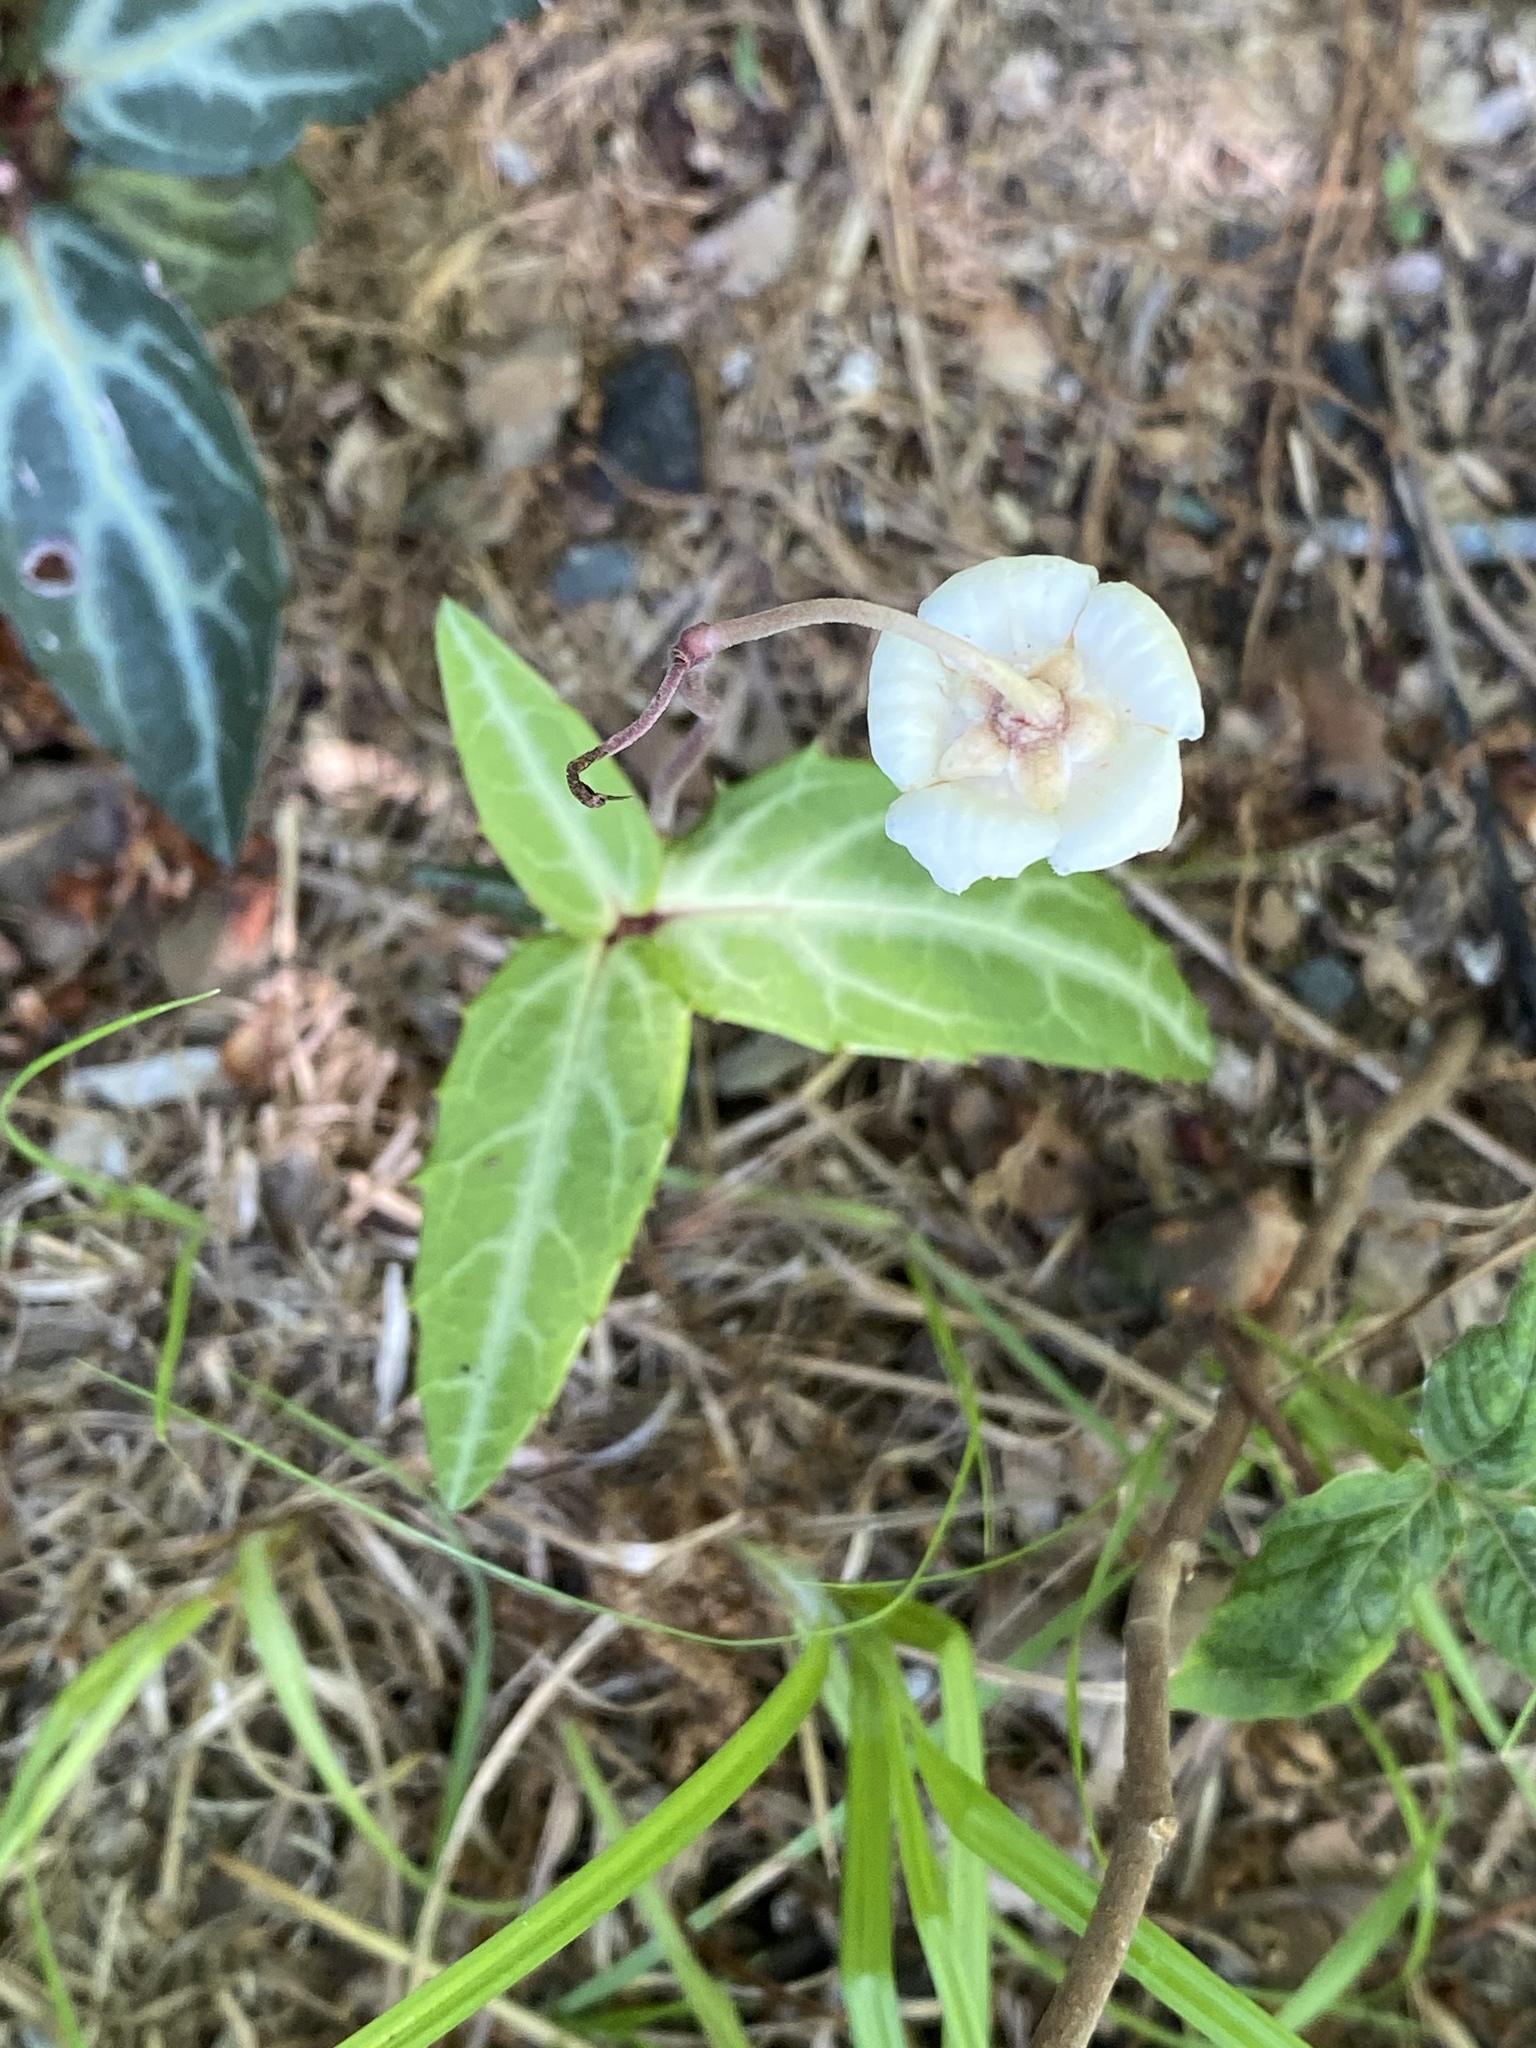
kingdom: Plantae
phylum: Tracheophyta
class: Magnoliopsida
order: Ericales
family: Ericaceae
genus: Chimaphila
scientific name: Chimaphila maculata
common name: Spotted pipsissewa
